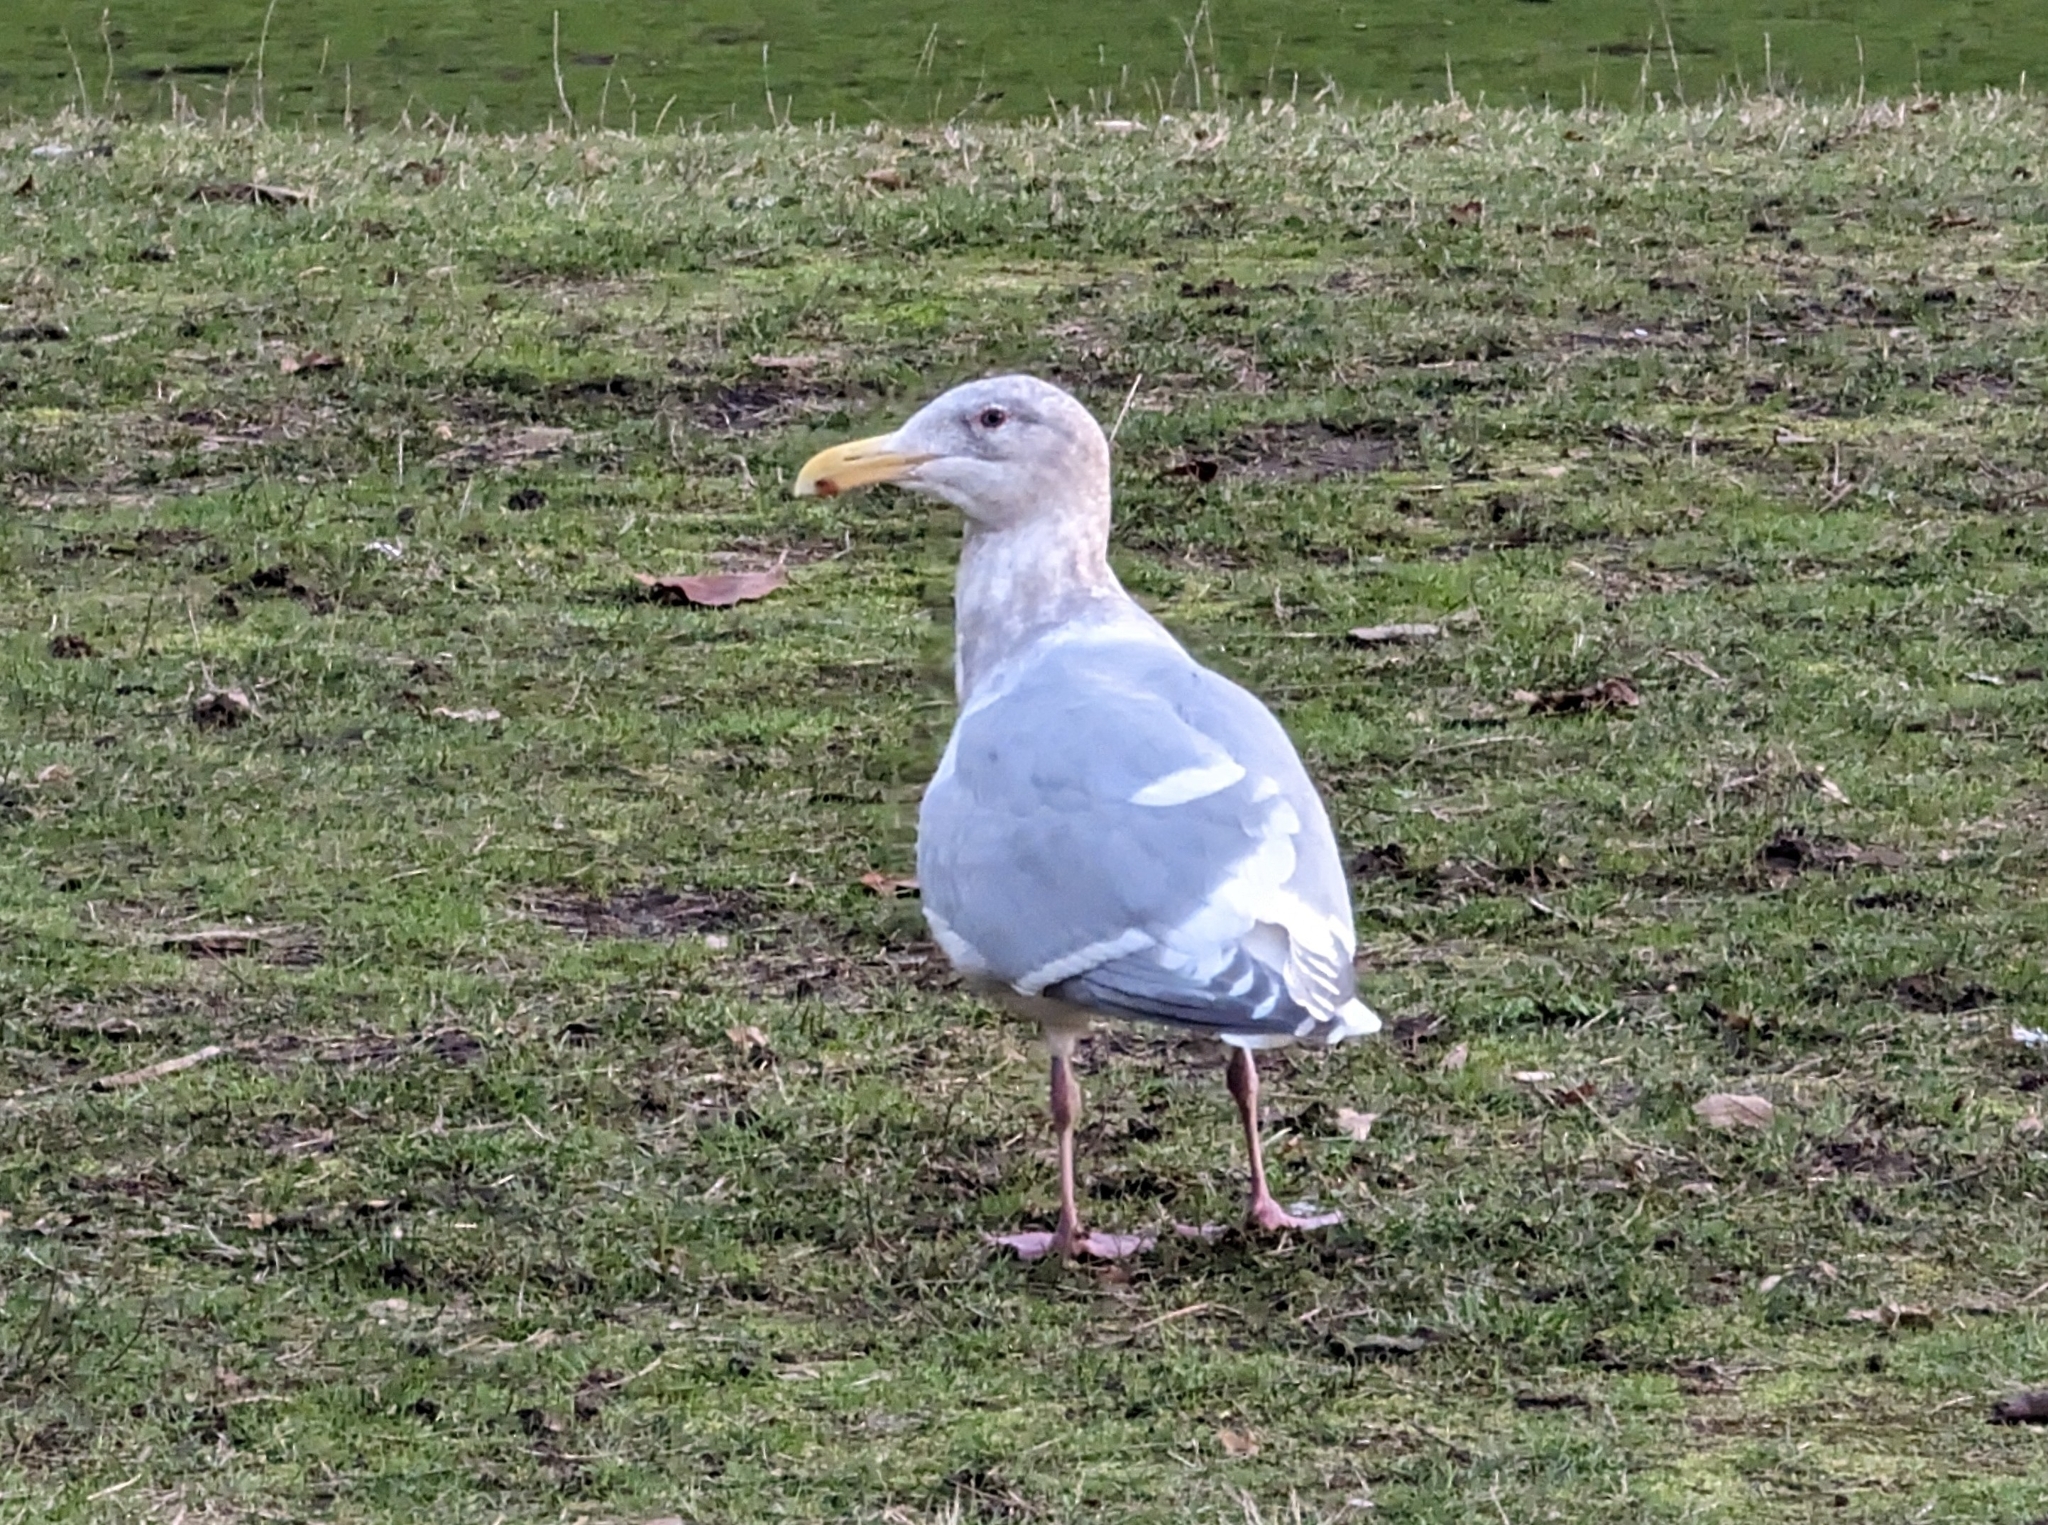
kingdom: Animalia
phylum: Chordata
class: Aves
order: Charadriiformes
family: Laridae
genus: Larus
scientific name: Larus
